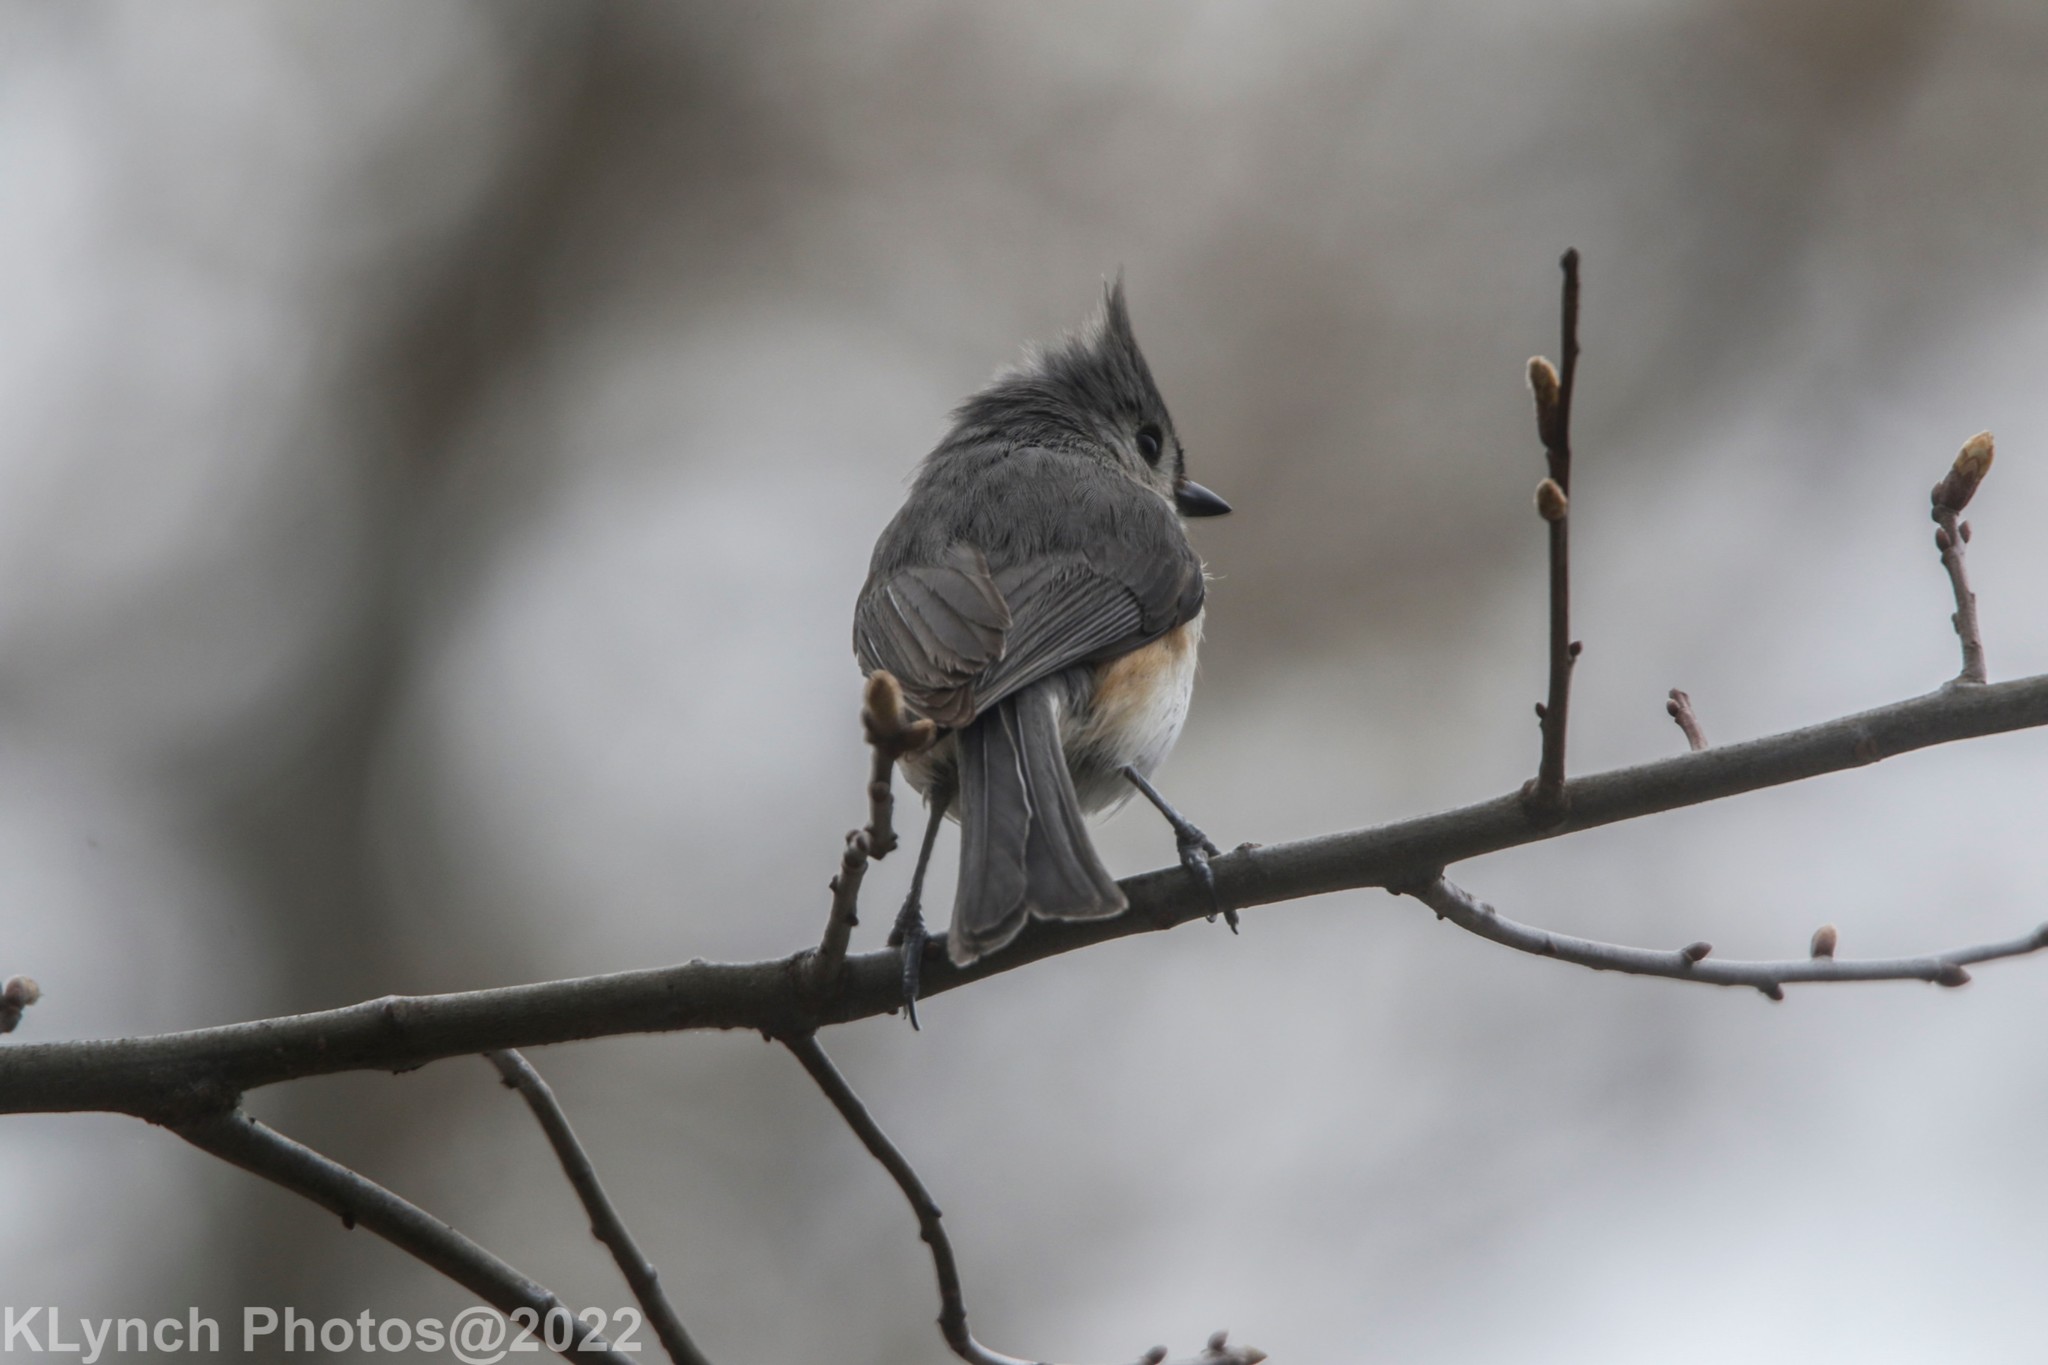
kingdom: Animalia
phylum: Chordata
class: Aves
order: Passeriformes
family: Paridae
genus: Baeolophus
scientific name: Baeolophus bicolor
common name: Tufted titmouse
